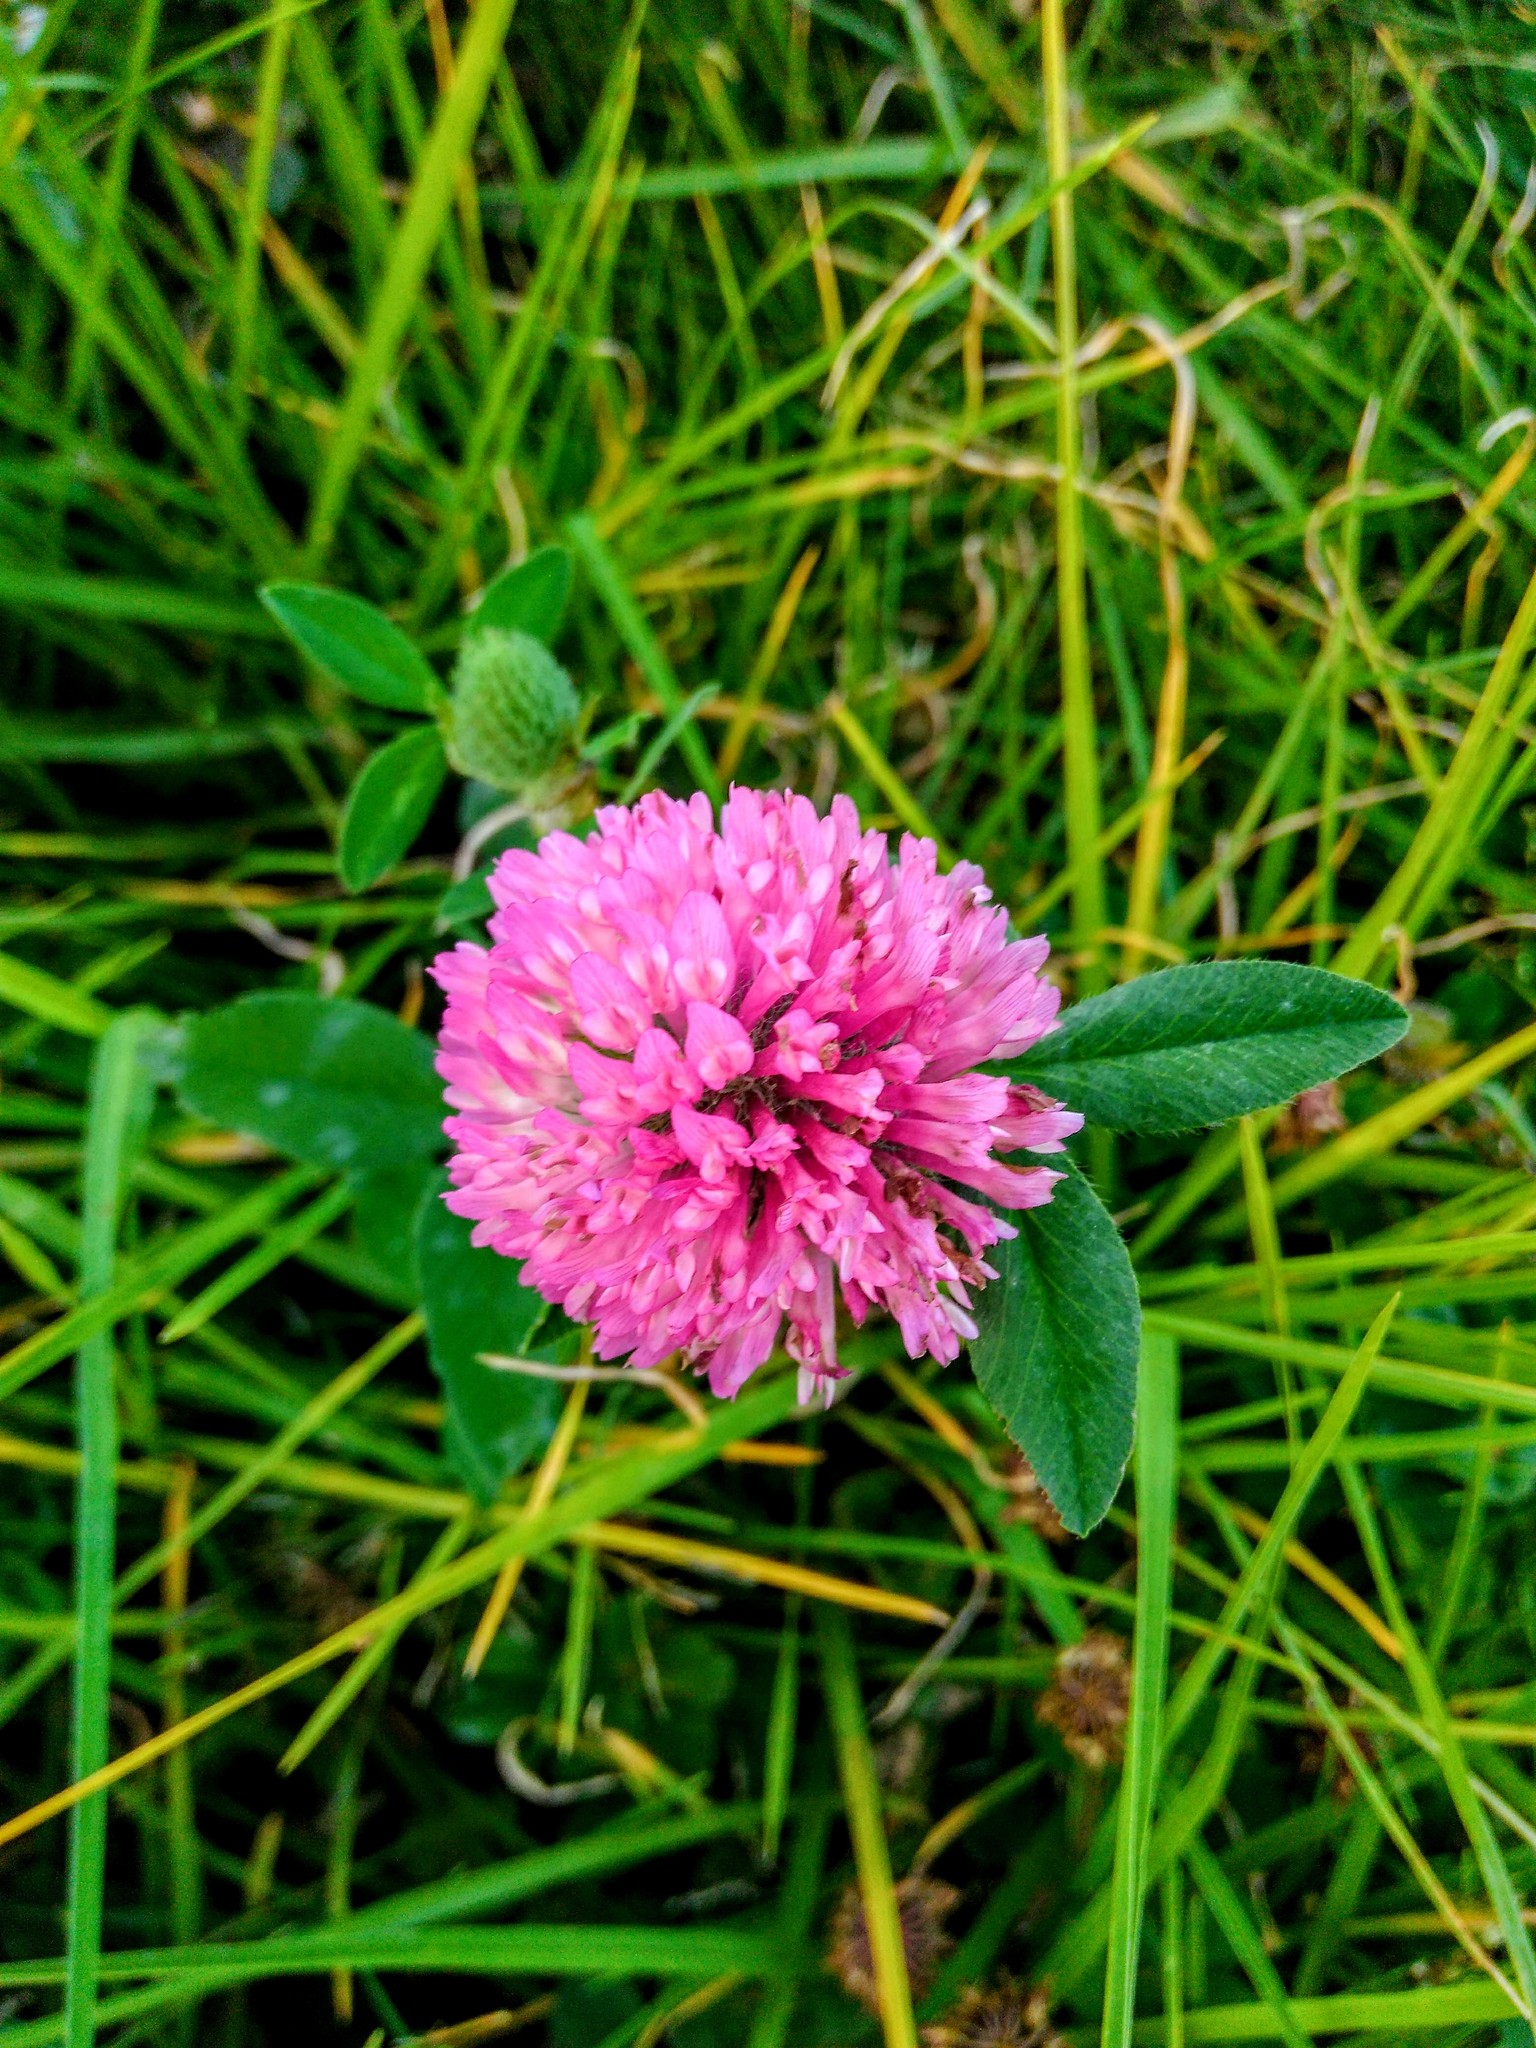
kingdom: Plantae
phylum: Tracheophyta
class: Magnoliopsida
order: Fabales
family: Fabaceae
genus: Trifolium
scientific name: Trifolium pratense
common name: Red clover
